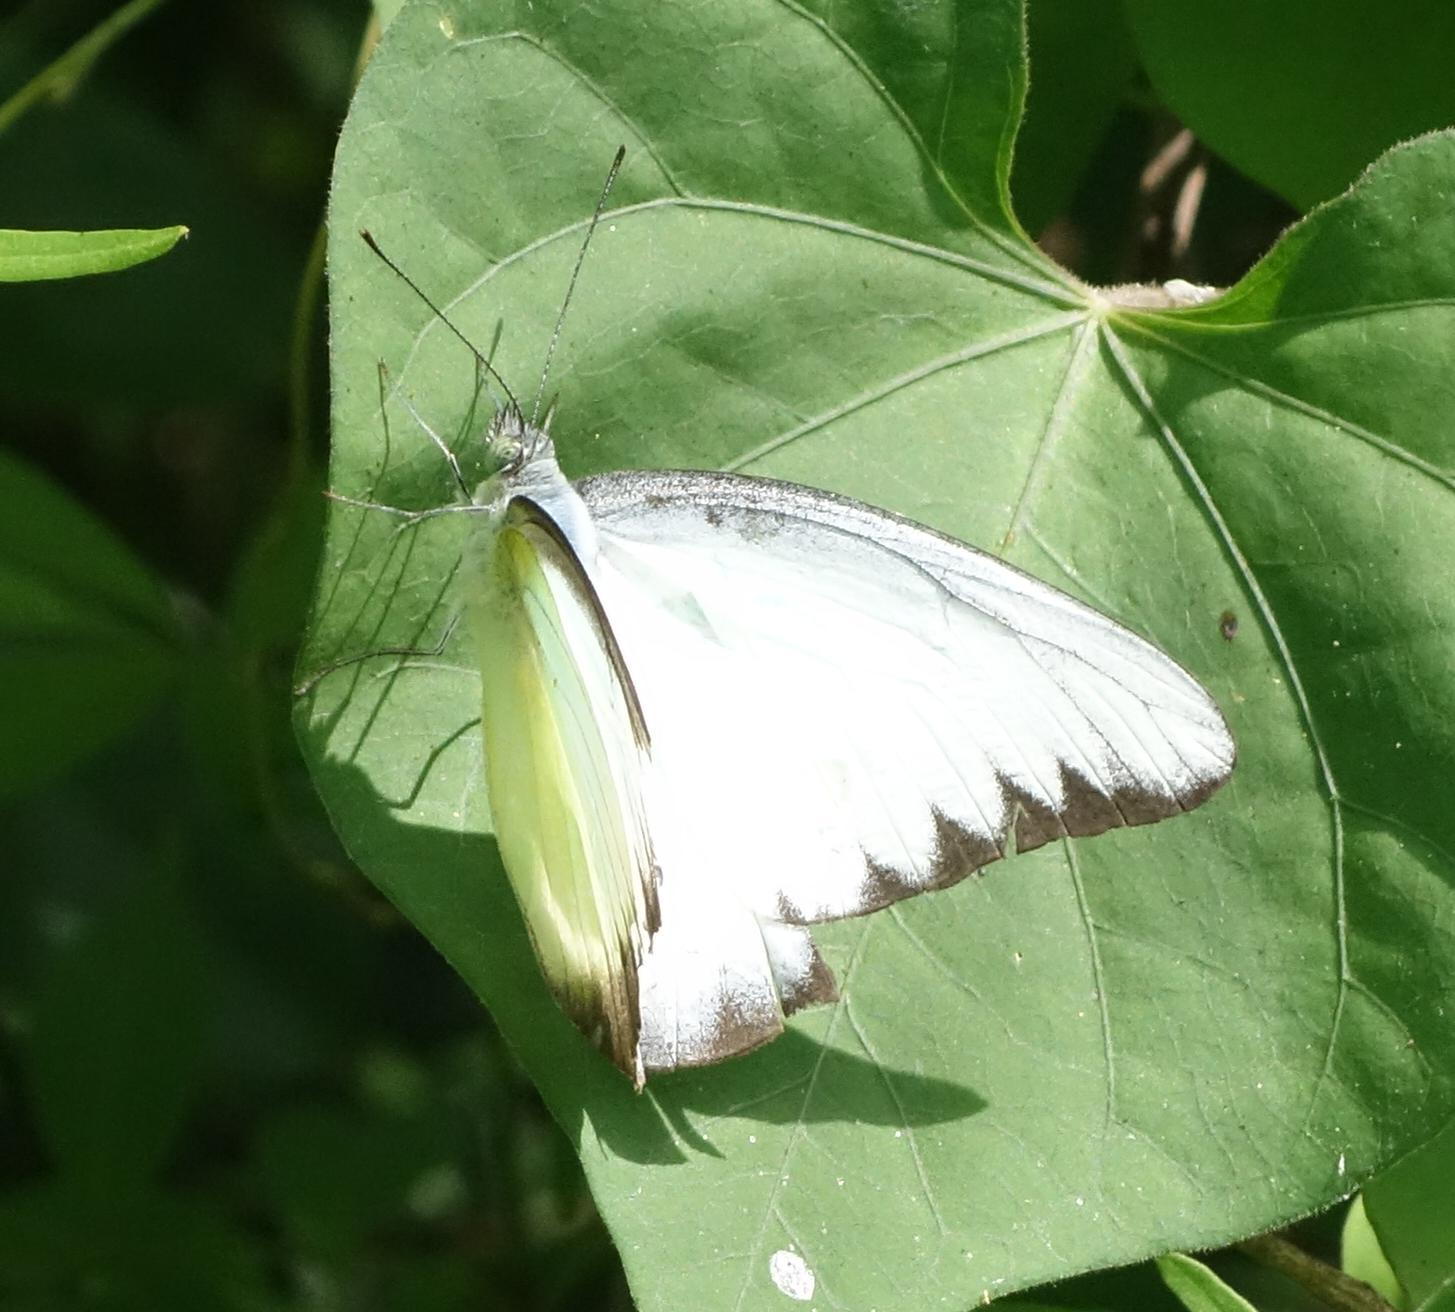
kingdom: Animalia
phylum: Arthropoda
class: Insecta
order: Lepidoptera
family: Pieridae
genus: Appias
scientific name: Appias lyncida
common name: Chocolate albatross
